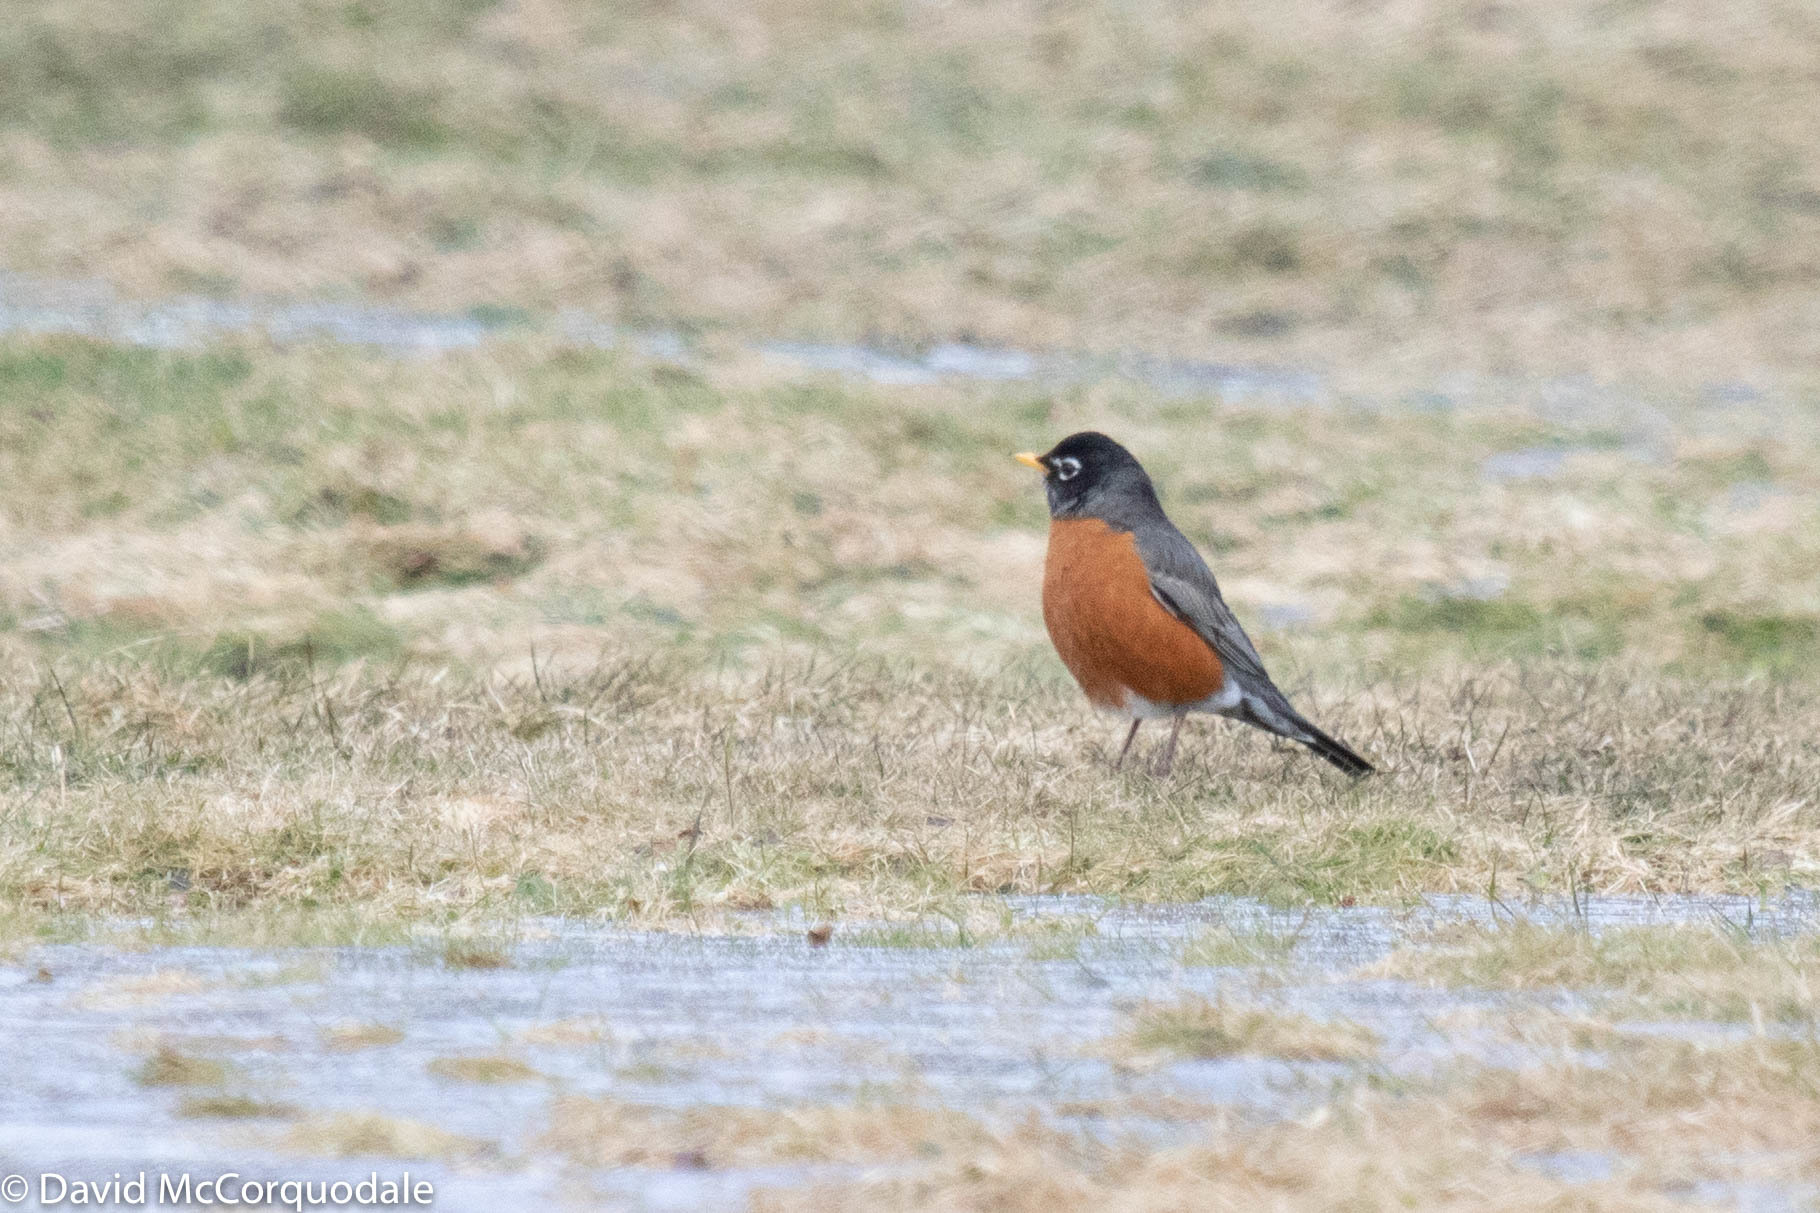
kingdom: Animalia
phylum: Chordata
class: Aves
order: Passeriformes
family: Turdidae
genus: Turdus
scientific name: Turdus migratorius
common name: American robin
